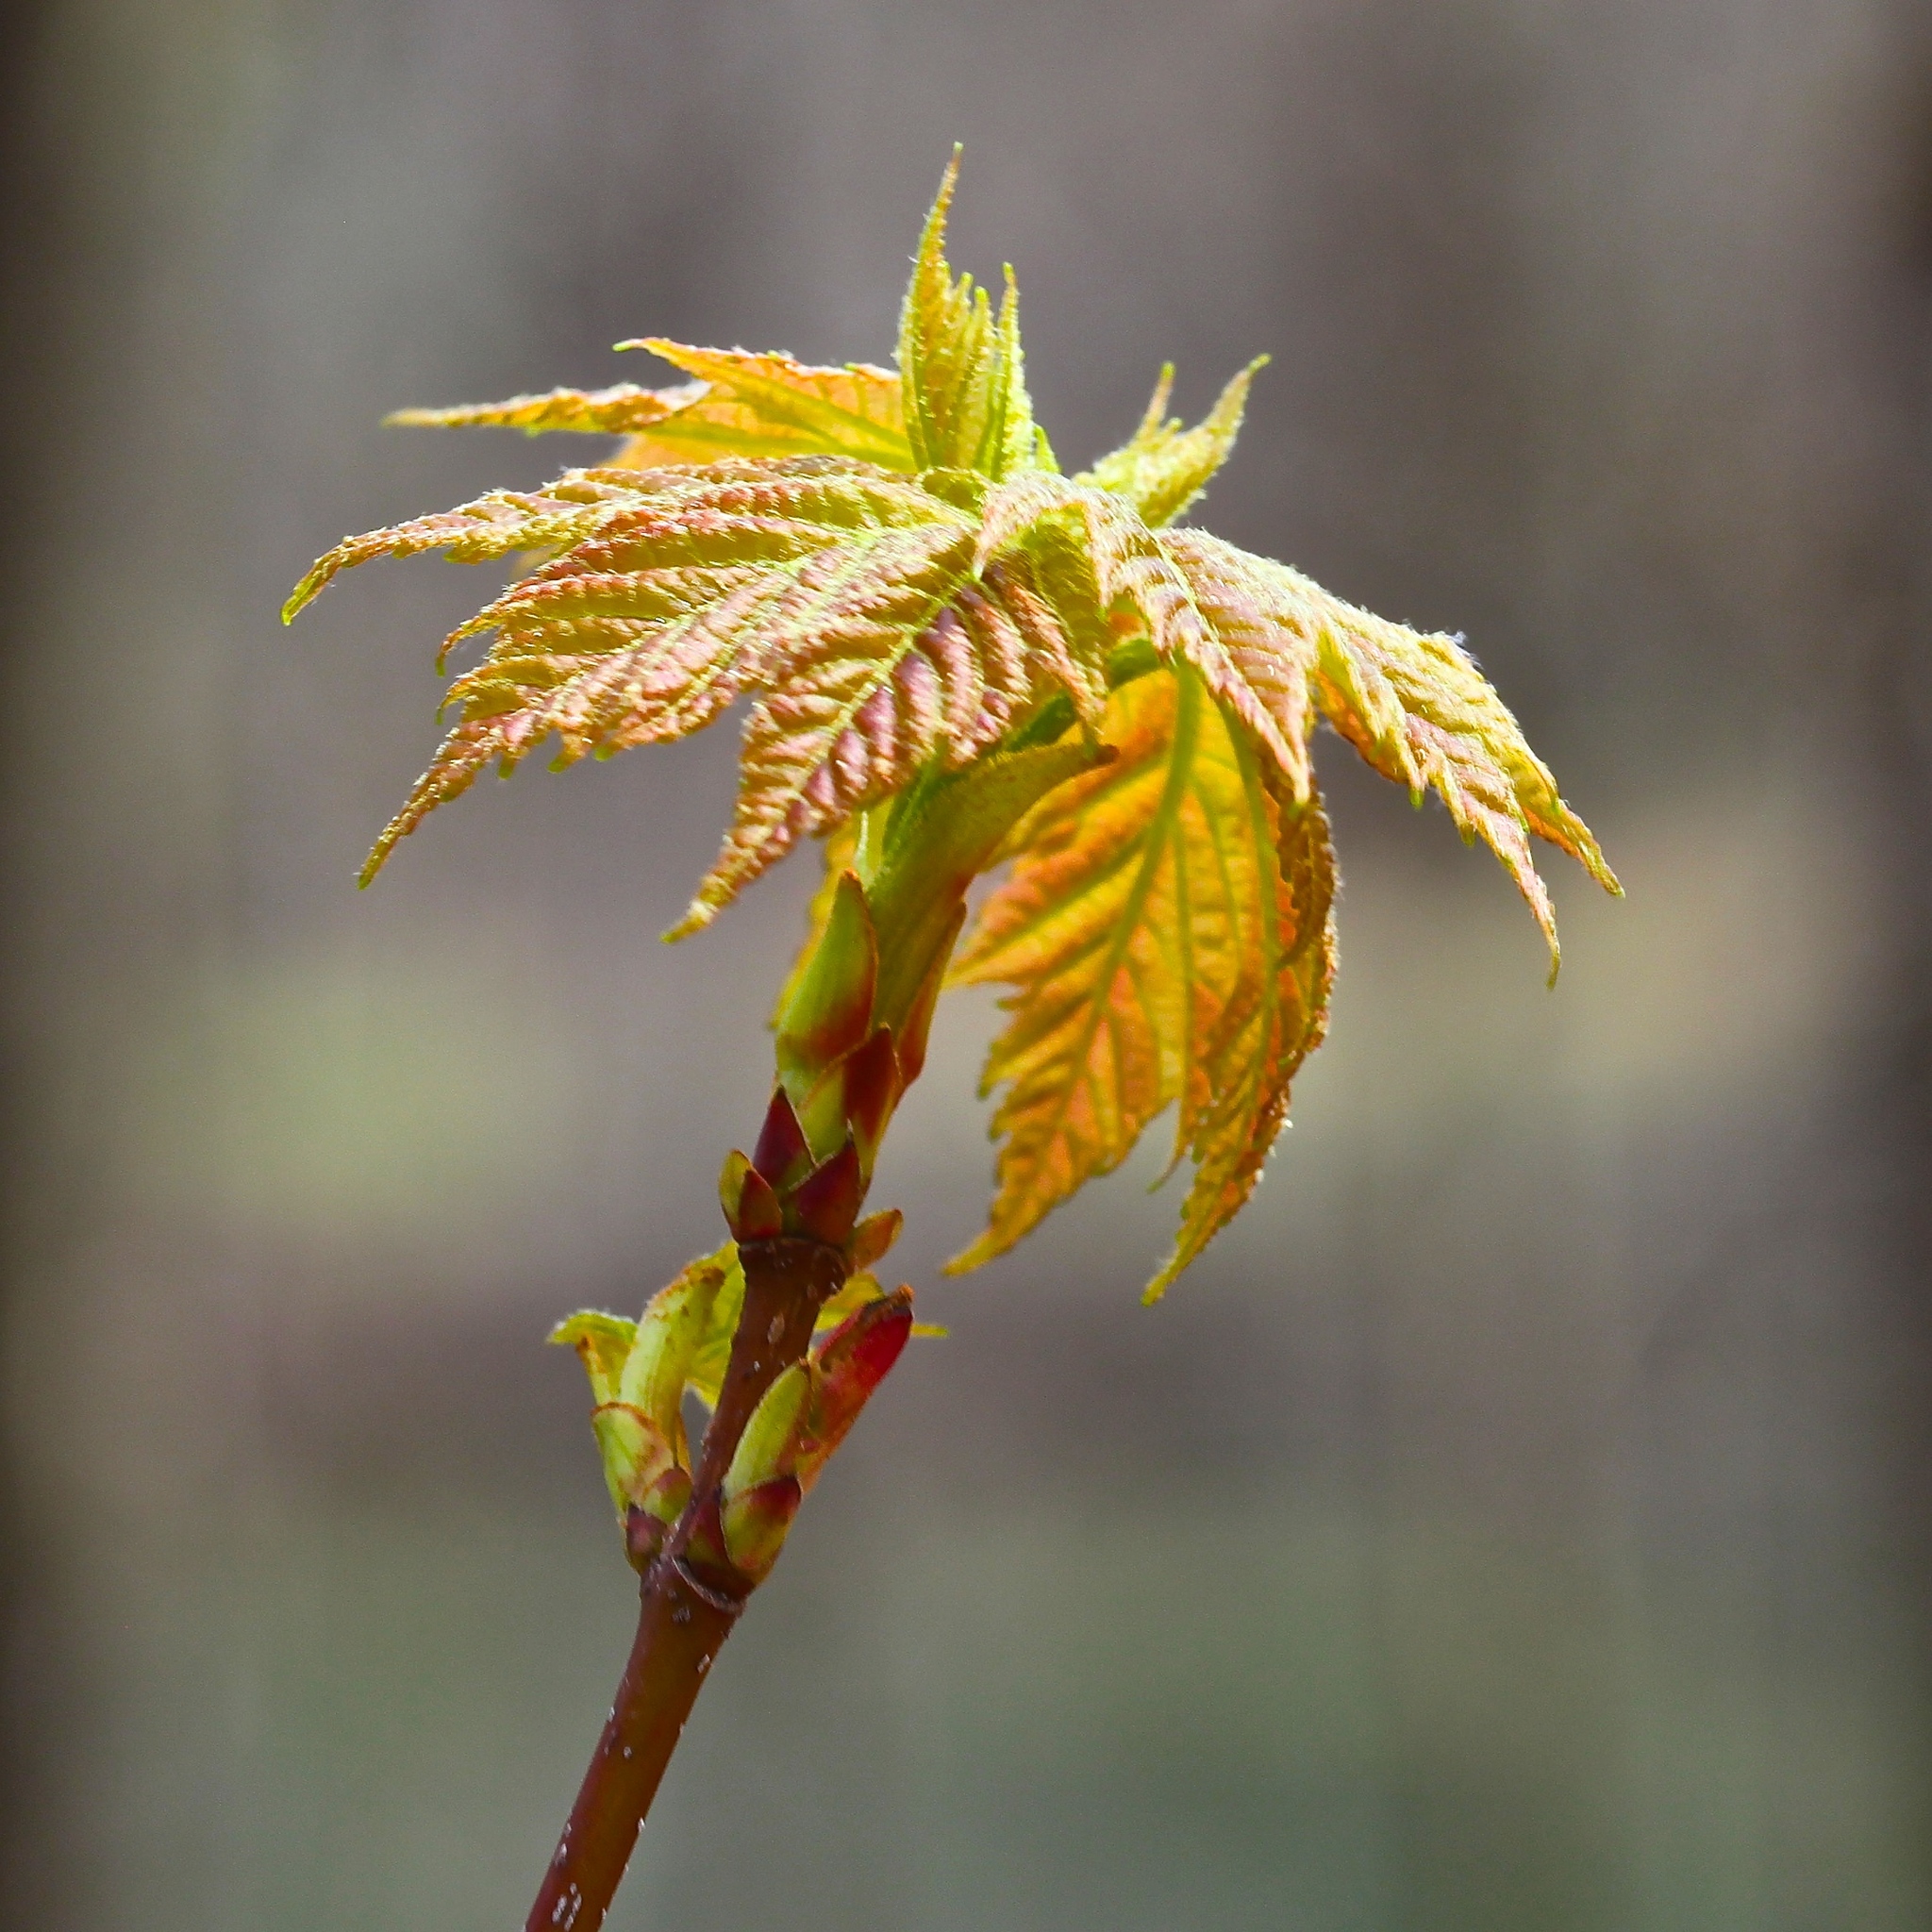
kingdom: Plantae
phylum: Tracheophyta
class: Magnoliopsida
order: Sapindales
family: Sapindaceae
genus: Acer
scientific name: Acer rubrum
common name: Red maple
